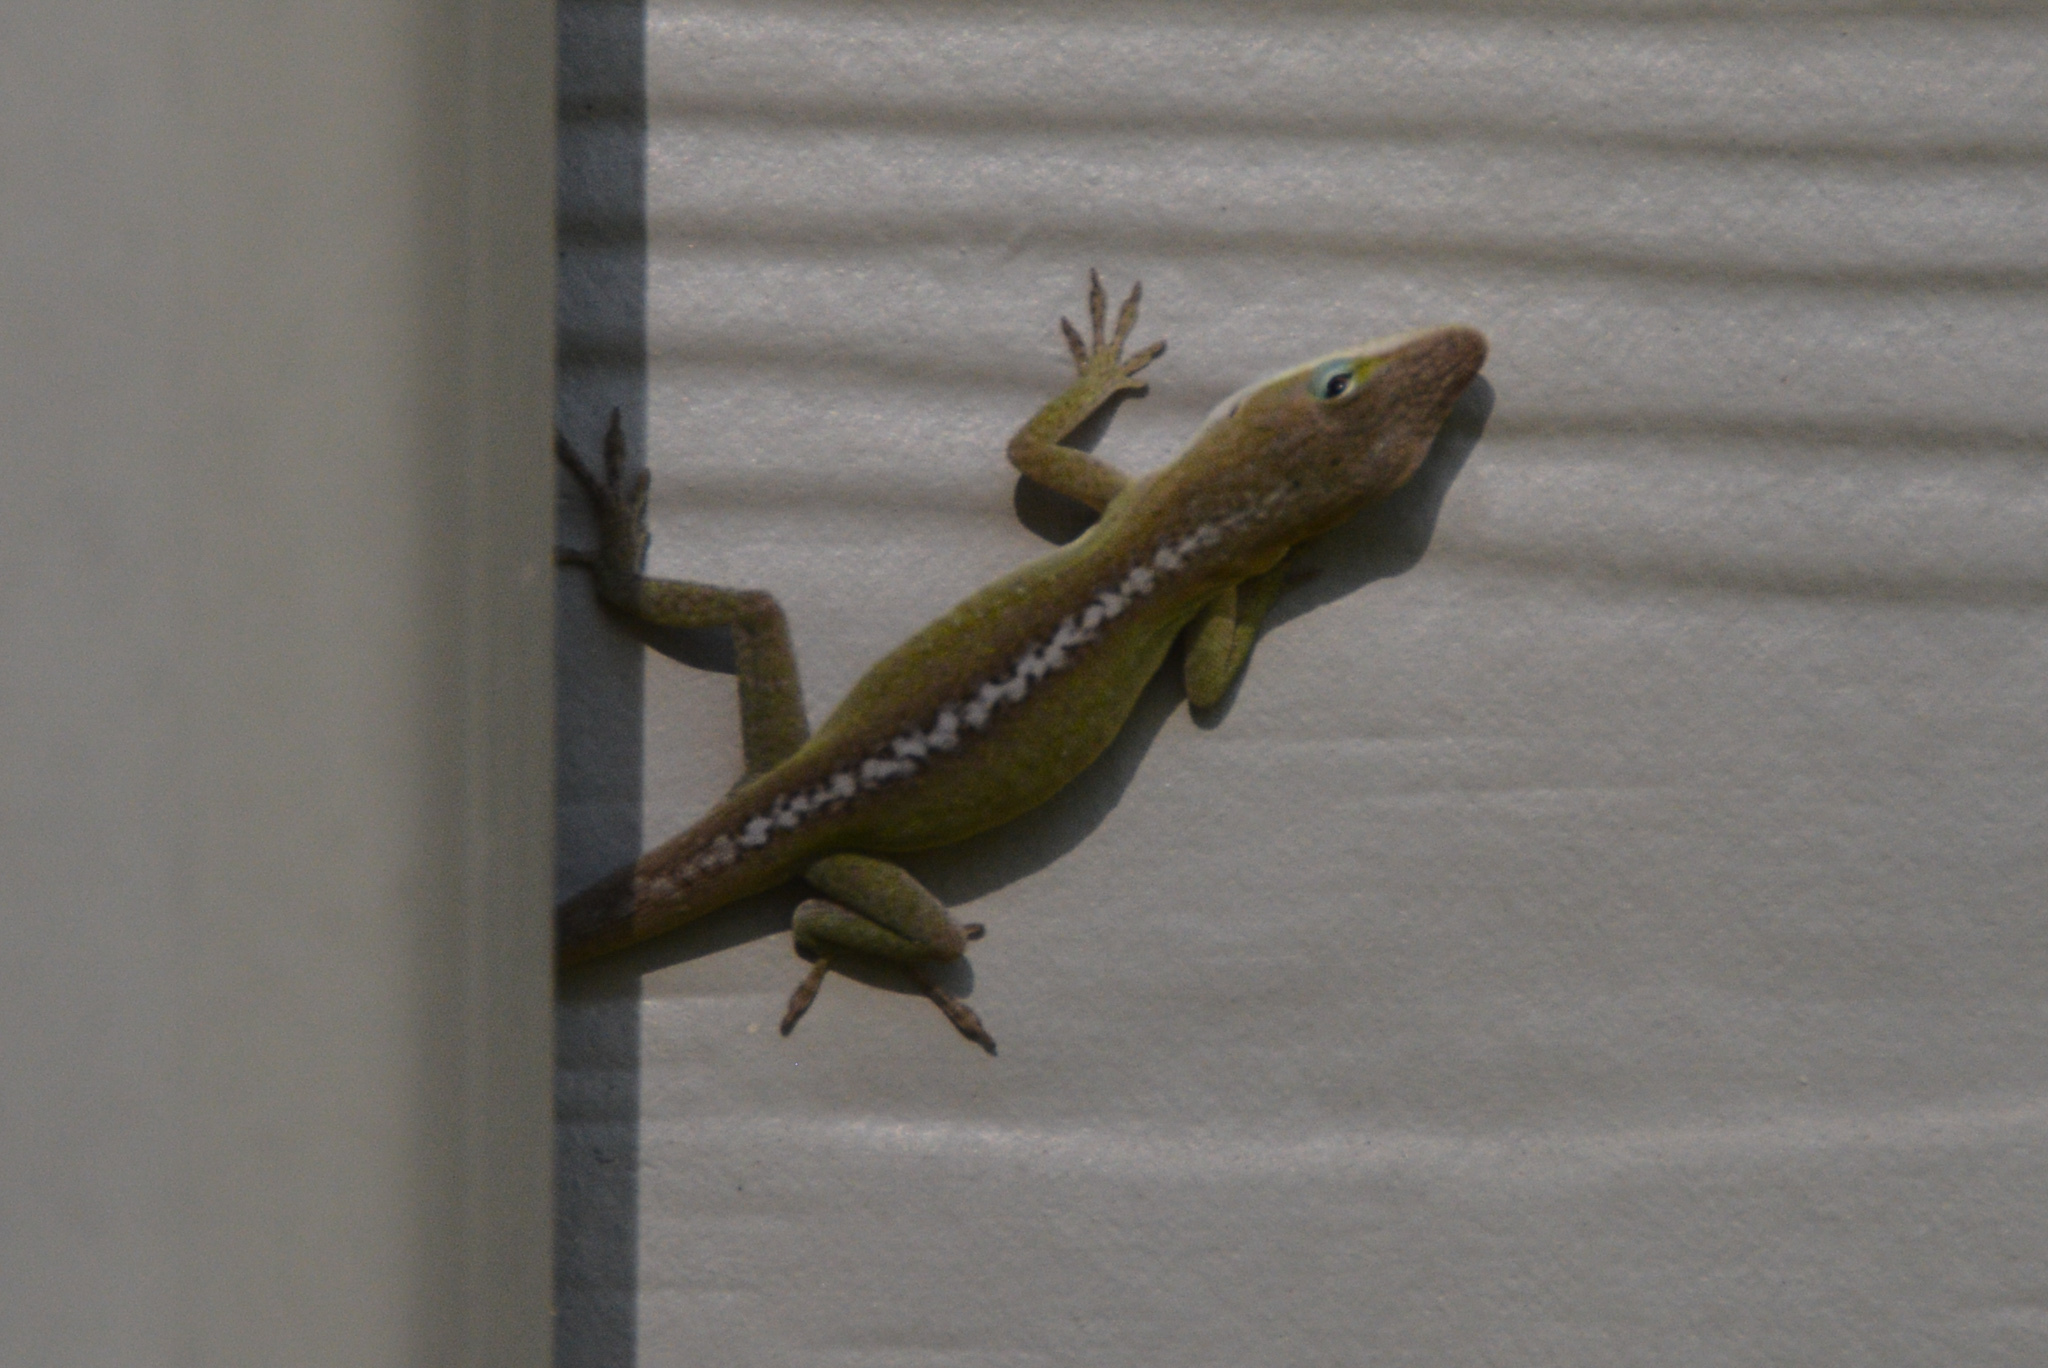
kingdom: Animalia
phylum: Chordata
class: Squamata
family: Dactyloidae
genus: Anolis
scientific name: Anolis carolinensis
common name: Green anole
